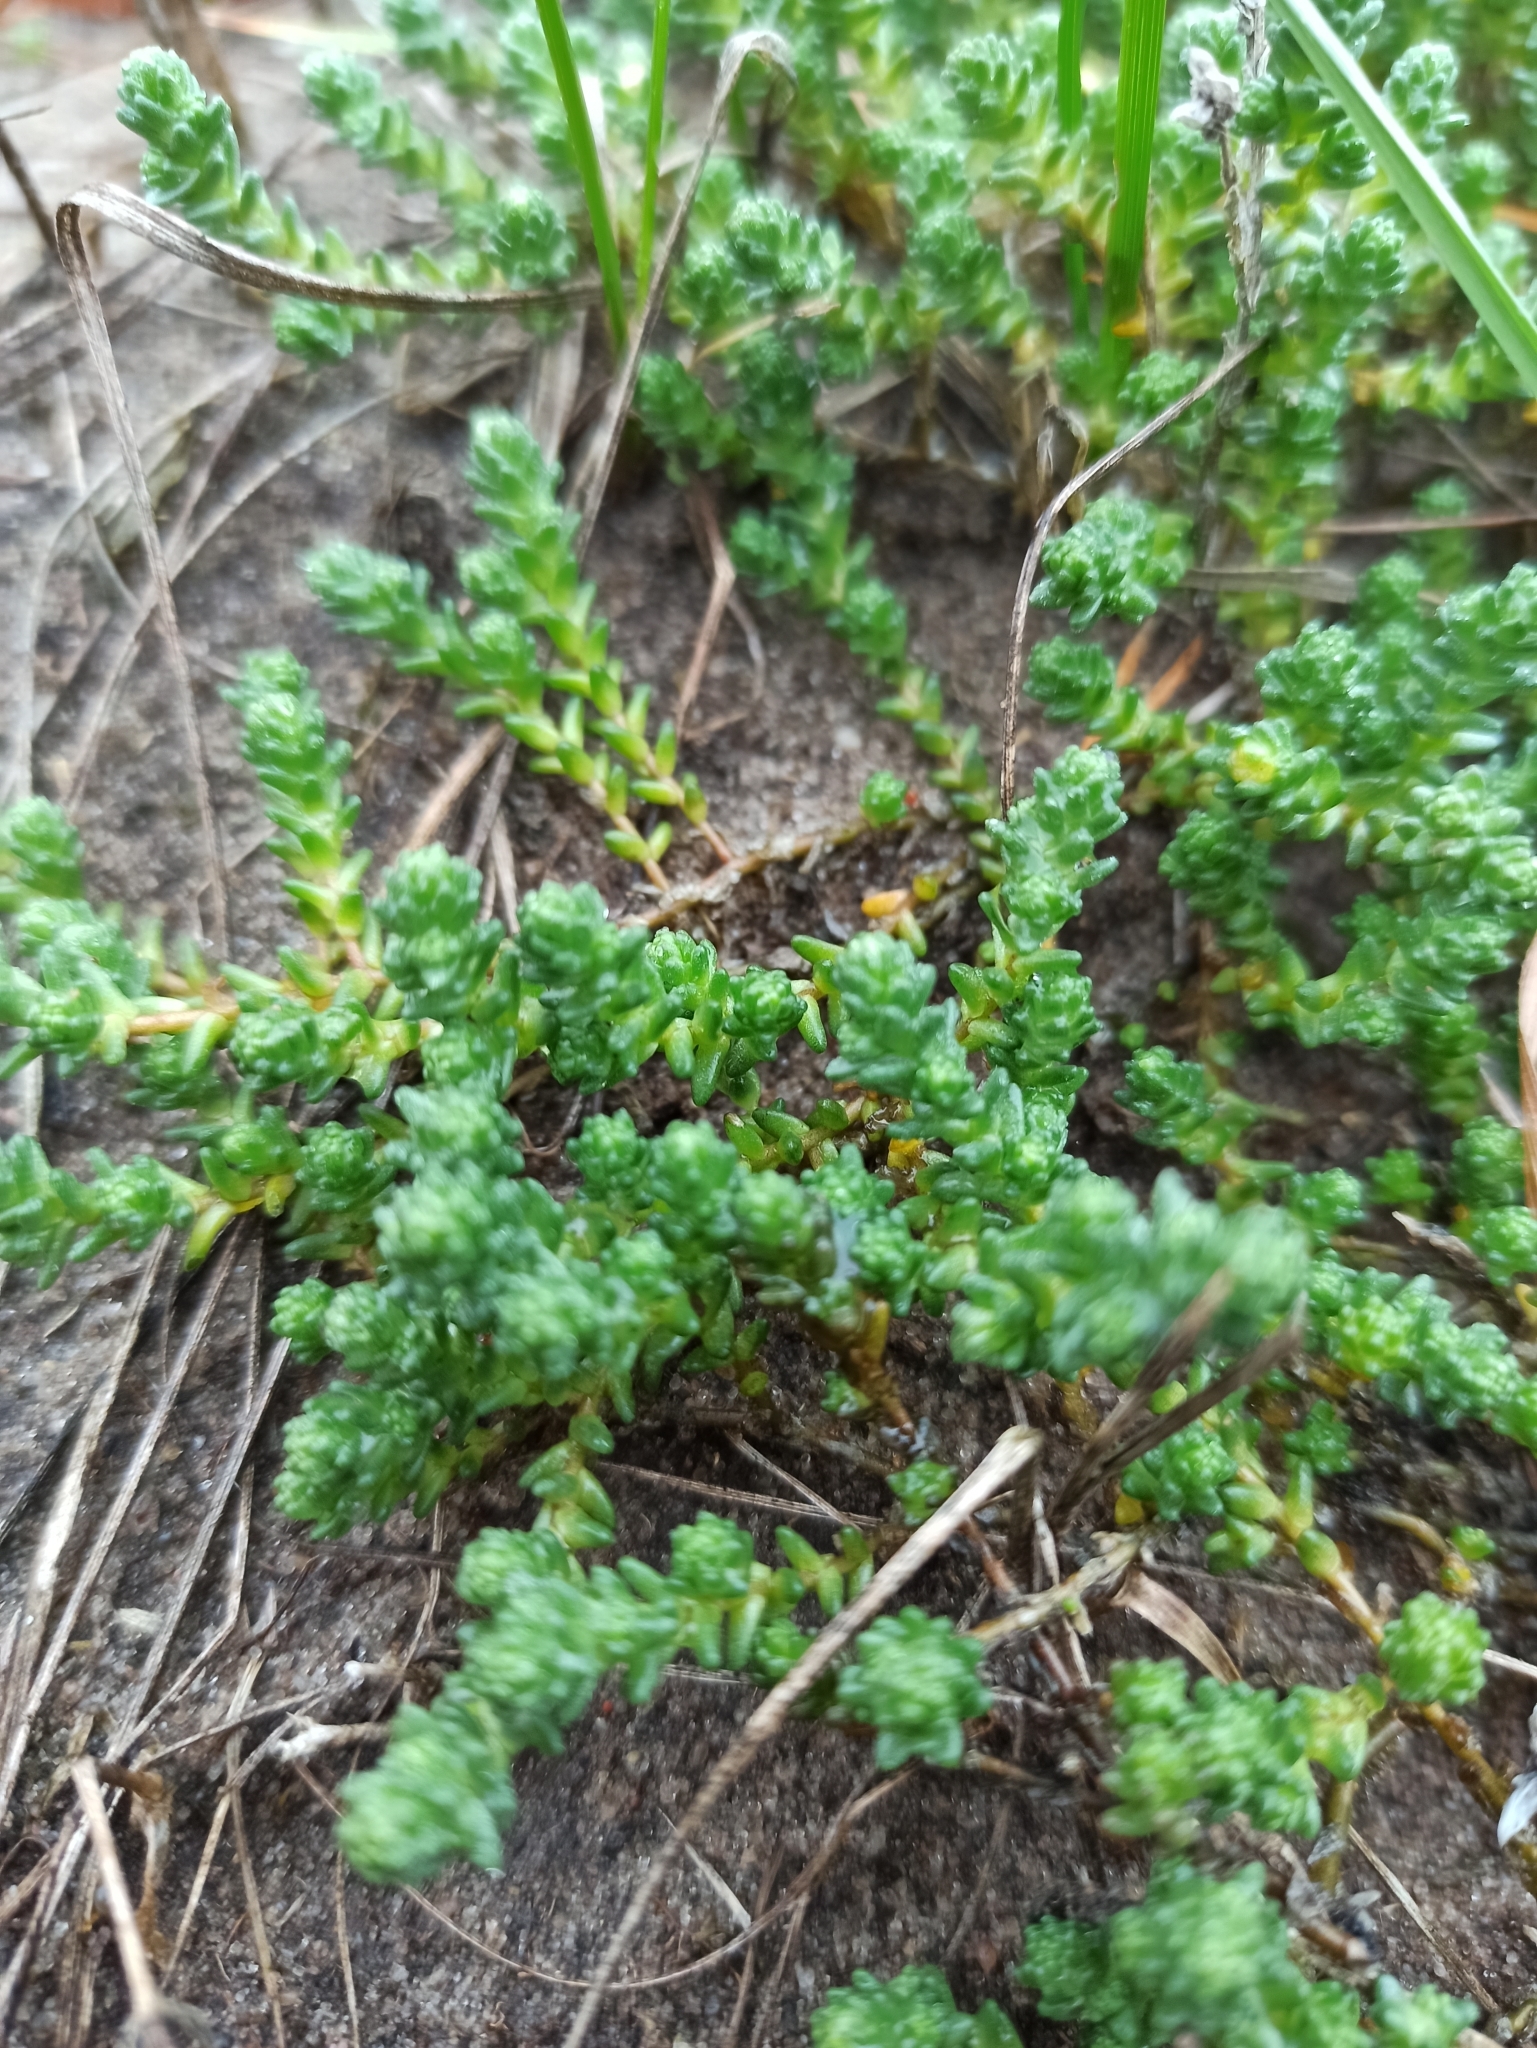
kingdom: Plantae
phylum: Tracheophyta
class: Magnoliopsida
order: Saxifragales
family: Crassulaceae
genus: Sedum
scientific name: Sedum acre
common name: Biting stonecrop
